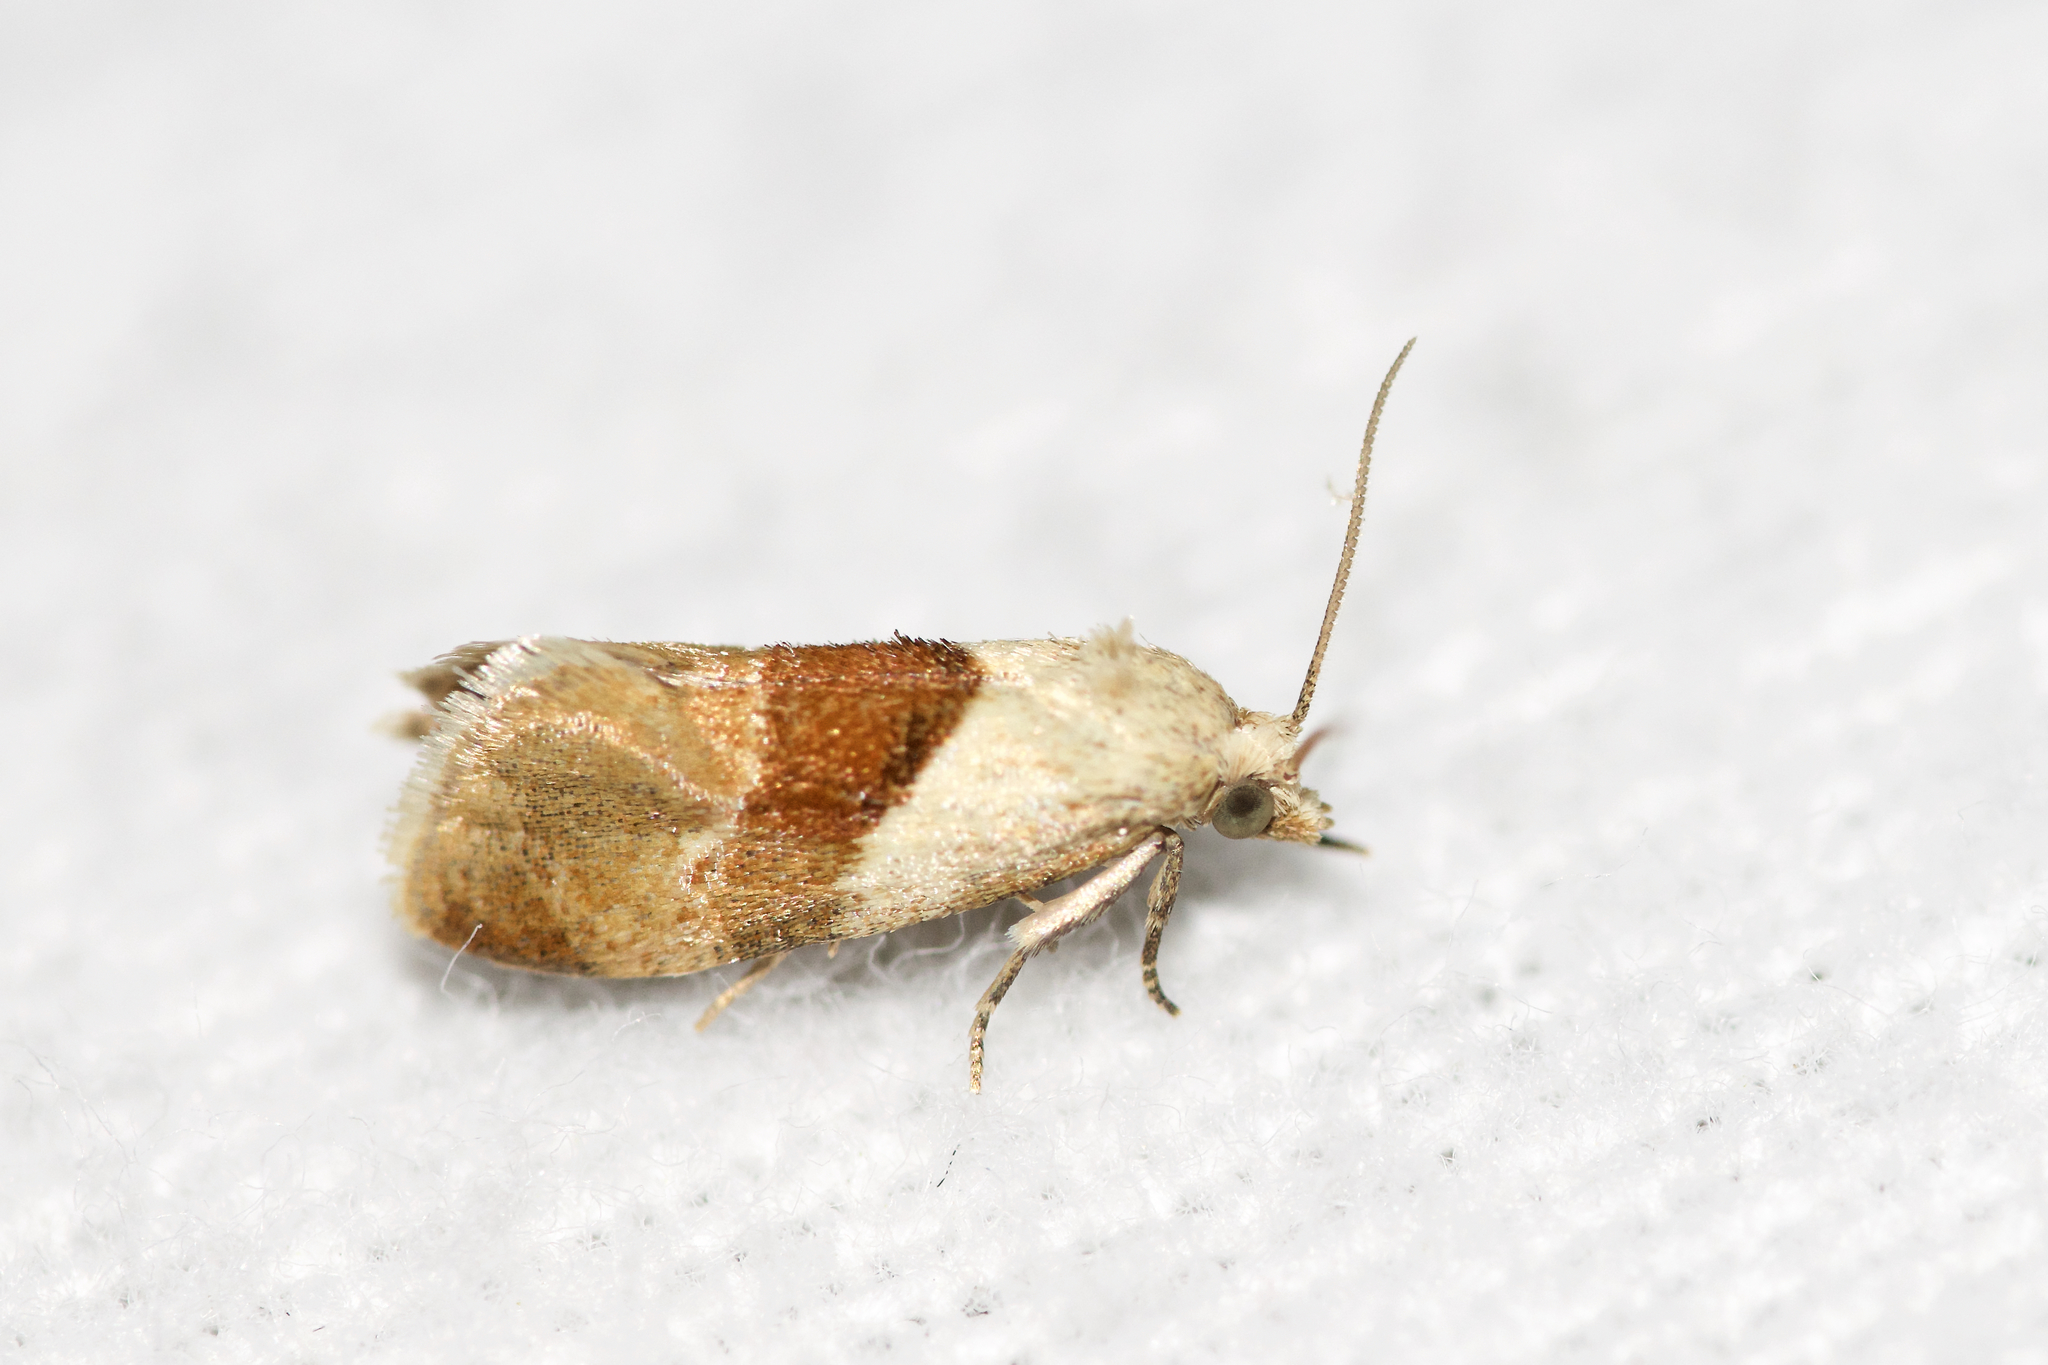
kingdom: Animalia
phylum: Arthropoda
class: Insecta
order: Lepidoptera
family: Tortricidae
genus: Phalonidia
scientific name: Phalonidia lepidana
